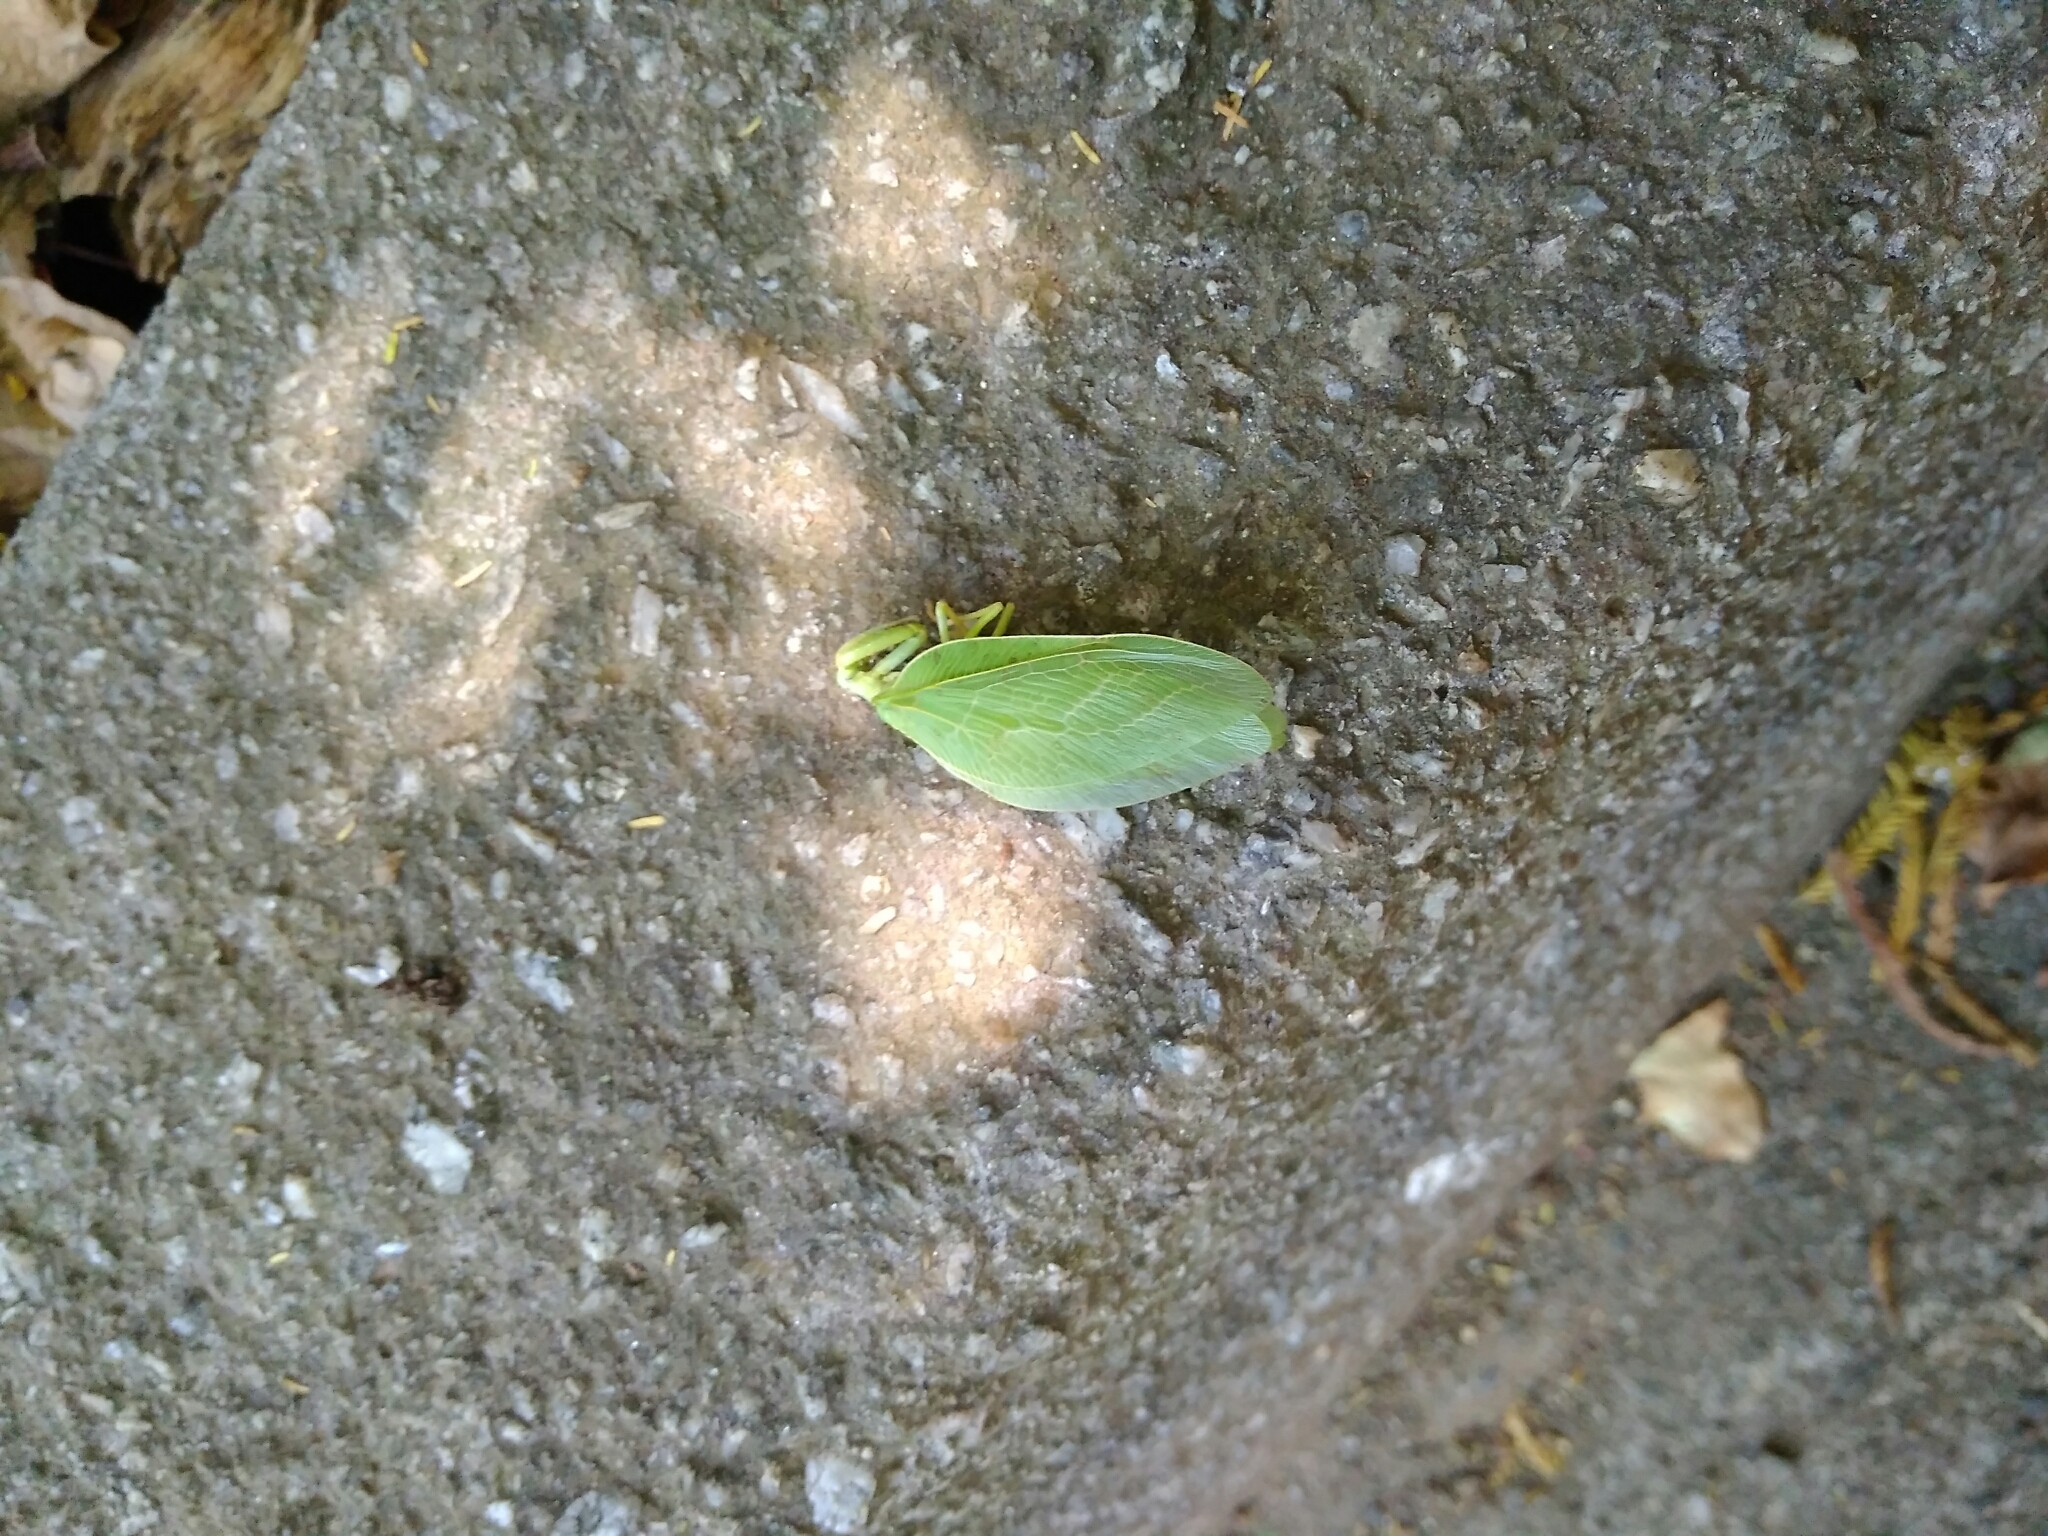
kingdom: Animalia
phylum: Arthropoda
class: Insecta
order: Neuroptera
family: Mantispidae
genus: Drepanicus
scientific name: Drepanicus gayi
